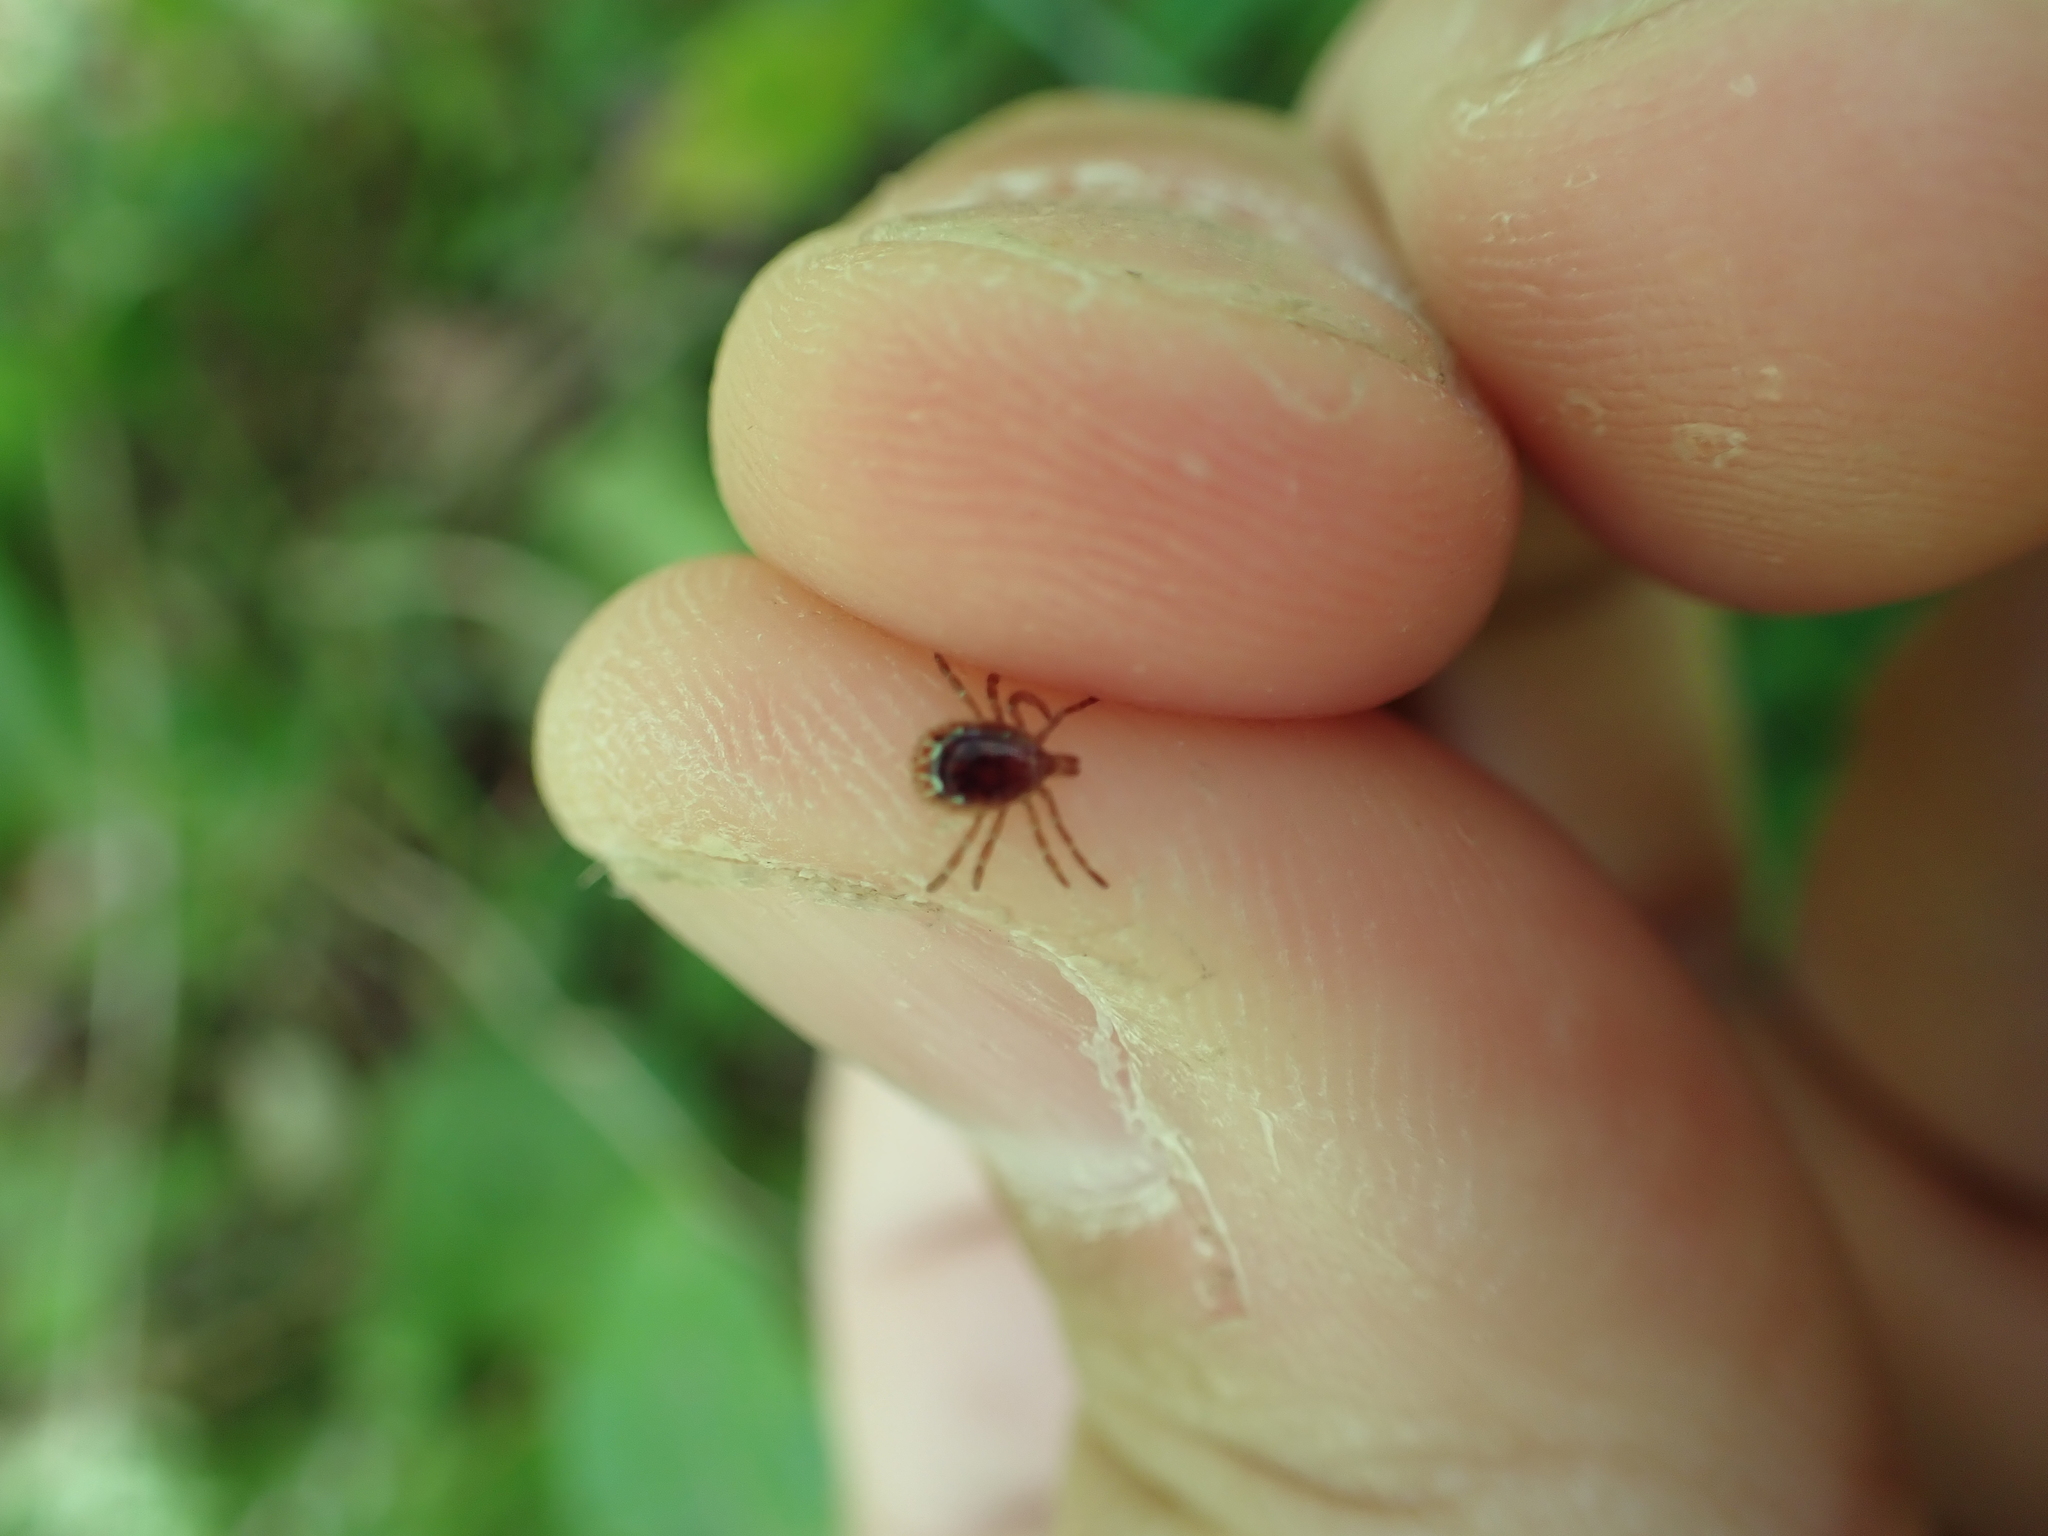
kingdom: Animalia
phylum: Arthropoda
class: Arachnida
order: Ixodida
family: Ixodidae
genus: Amblyomma
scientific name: Amblyomma americanum
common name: Lone star tick
